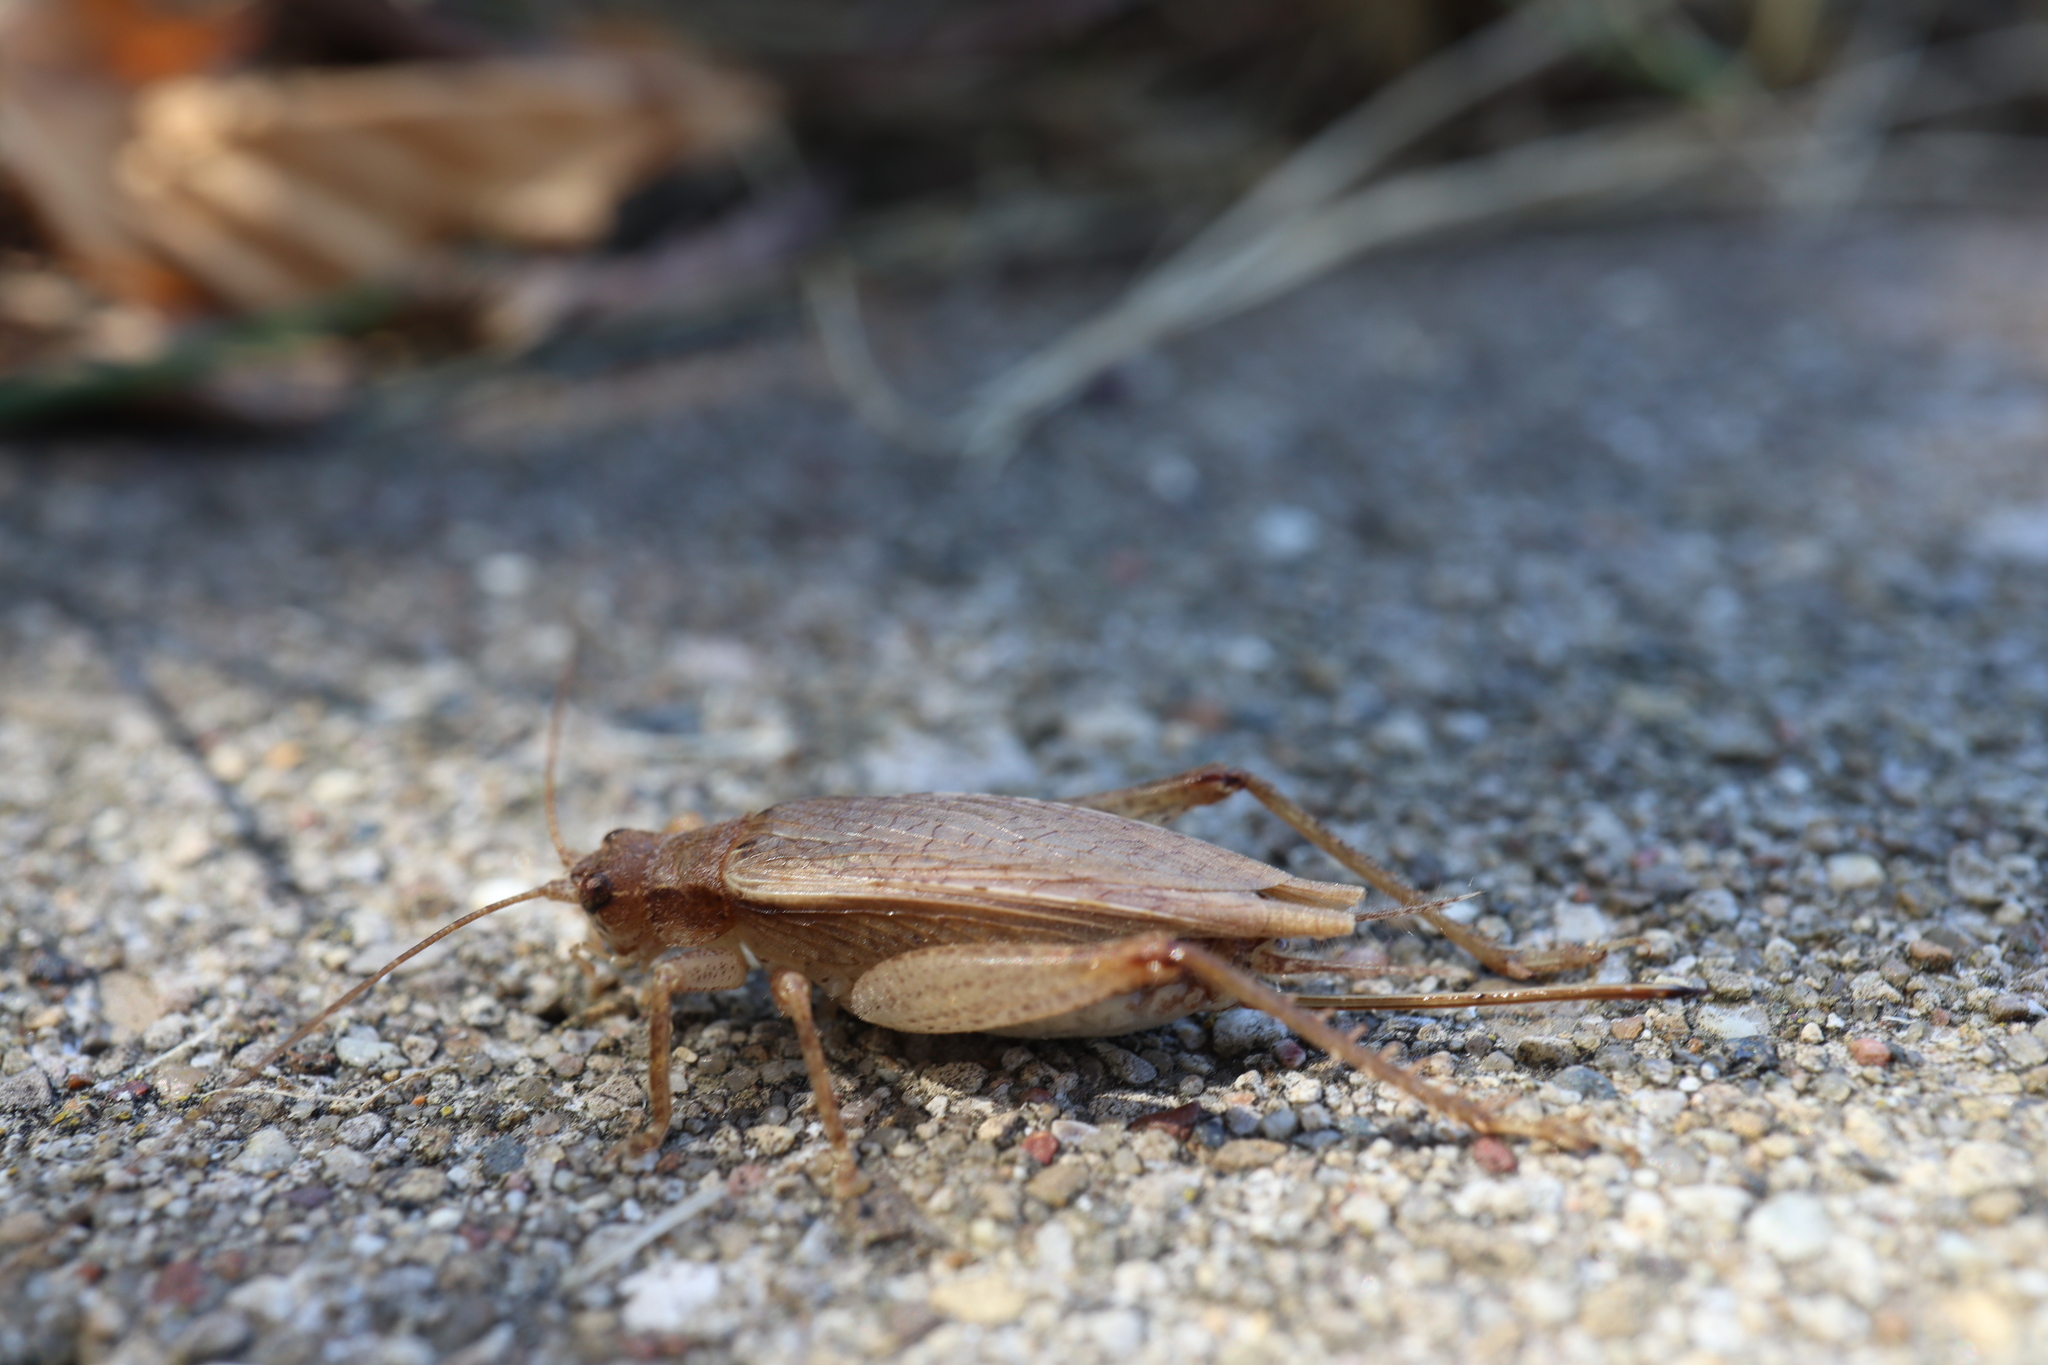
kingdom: Animalia
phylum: Arthropoda
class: Insecta
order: Orthoptera
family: Gryllidae
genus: Hapithus
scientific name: Hapithus saltator
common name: Jumping bush cricket
